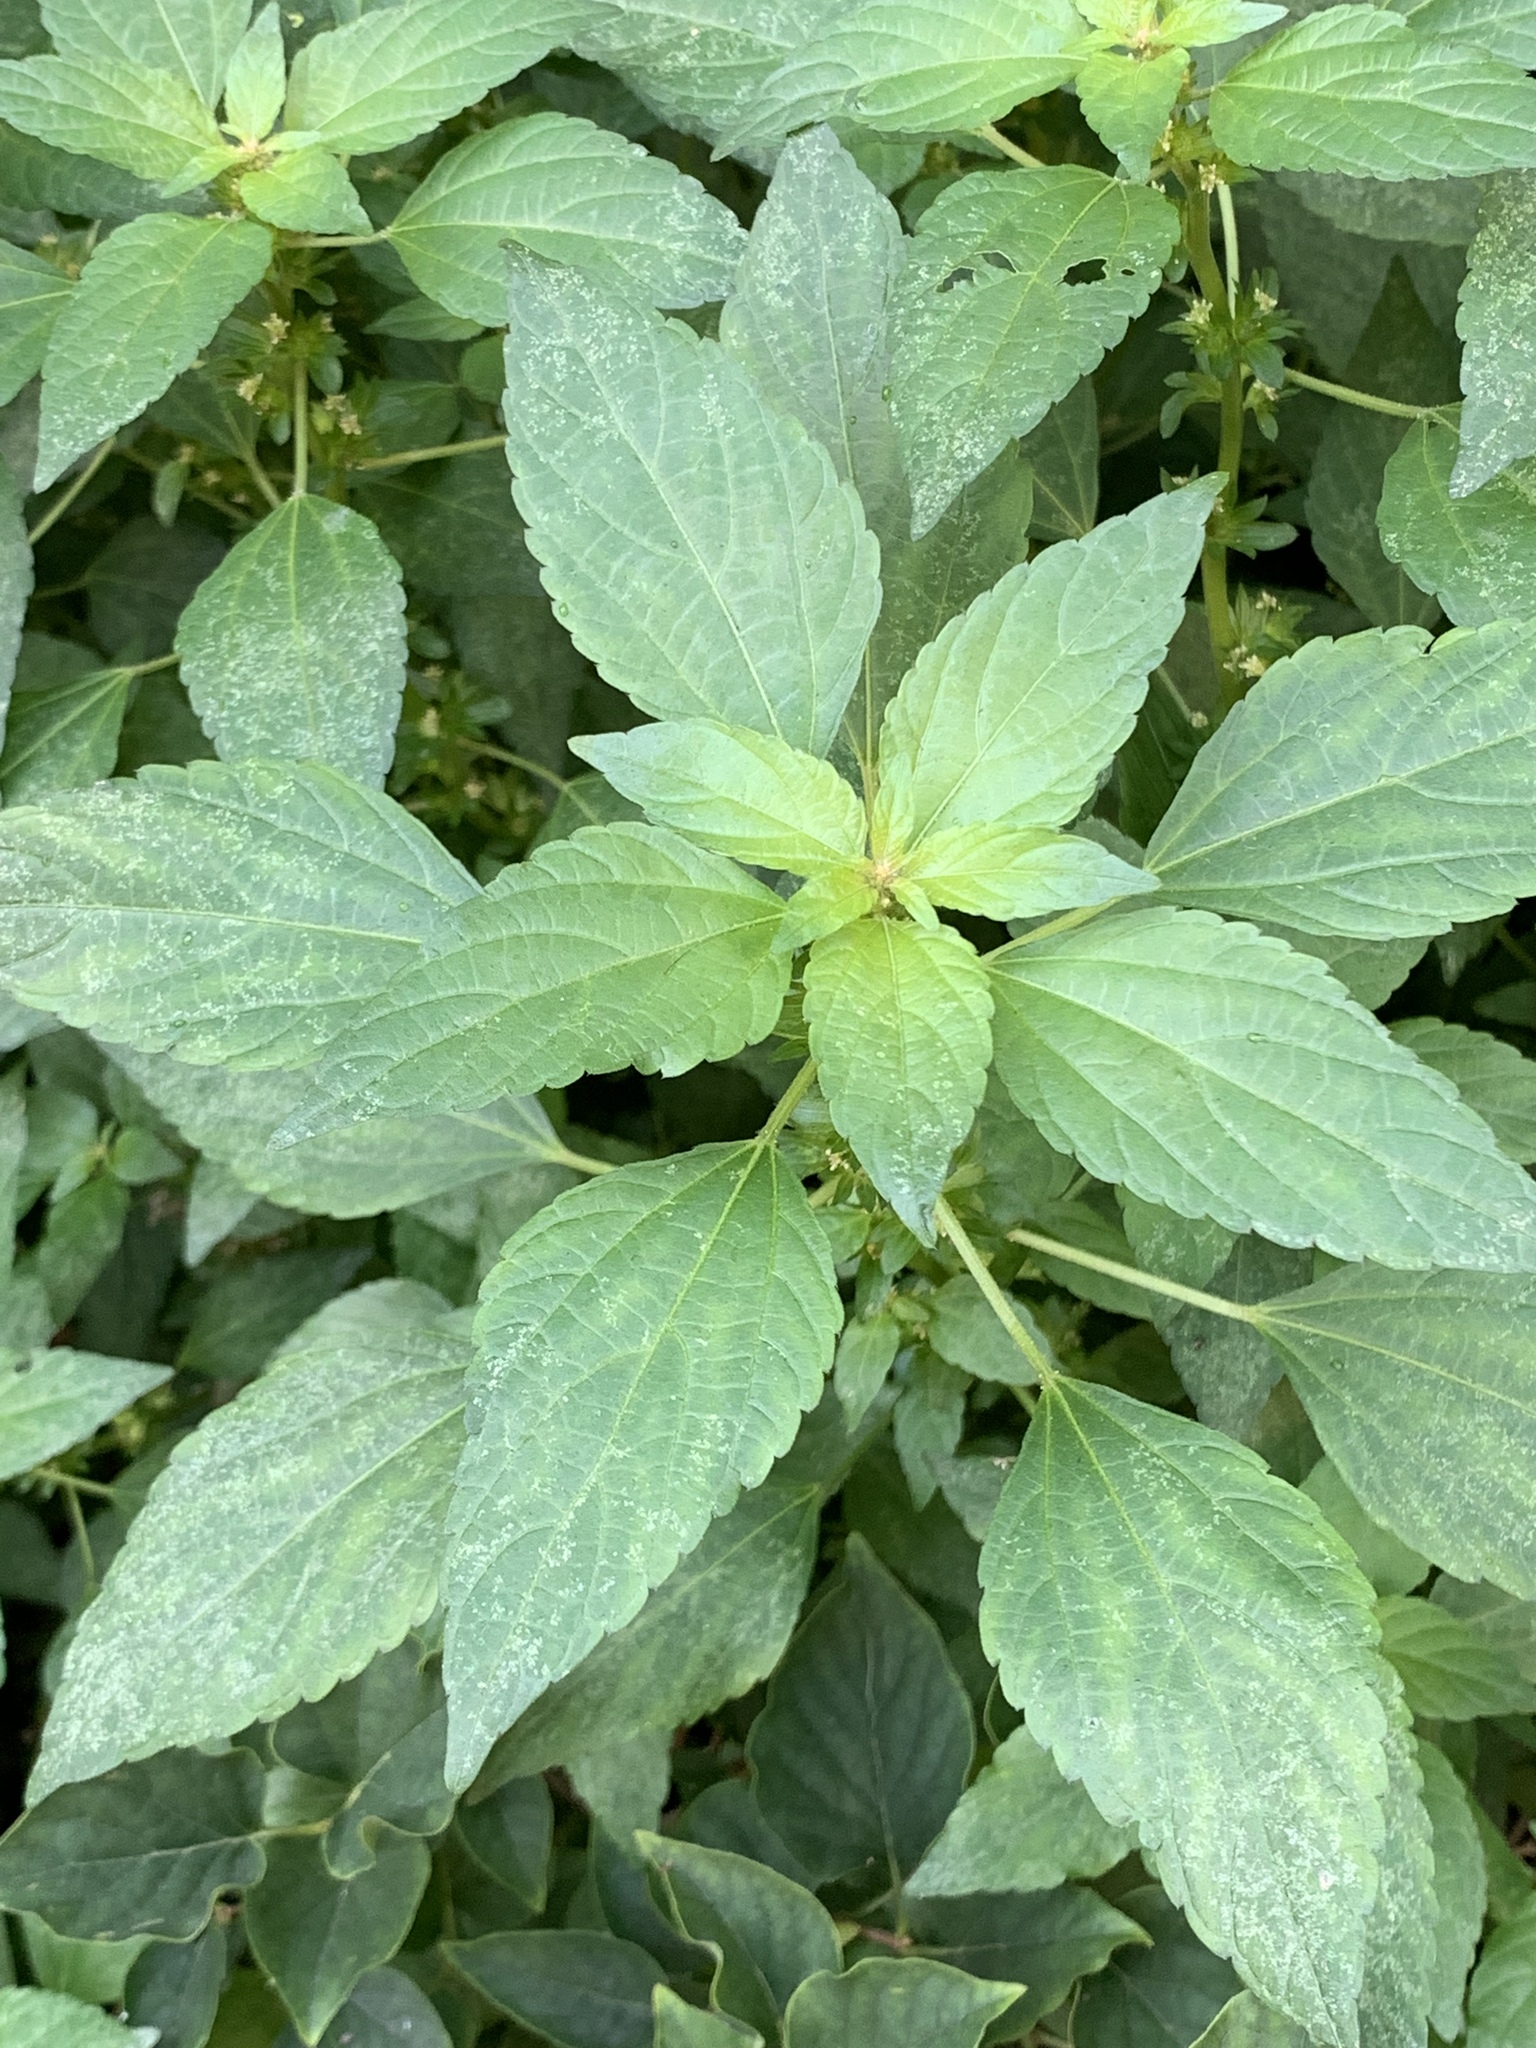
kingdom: Plantae
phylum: Tracheophyta
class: Magnoliopsida
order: Malpighiales
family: Euphorbiaceae
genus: Acalypha
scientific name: Acalypha rhomboidea
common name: Rhombic copperleaf
